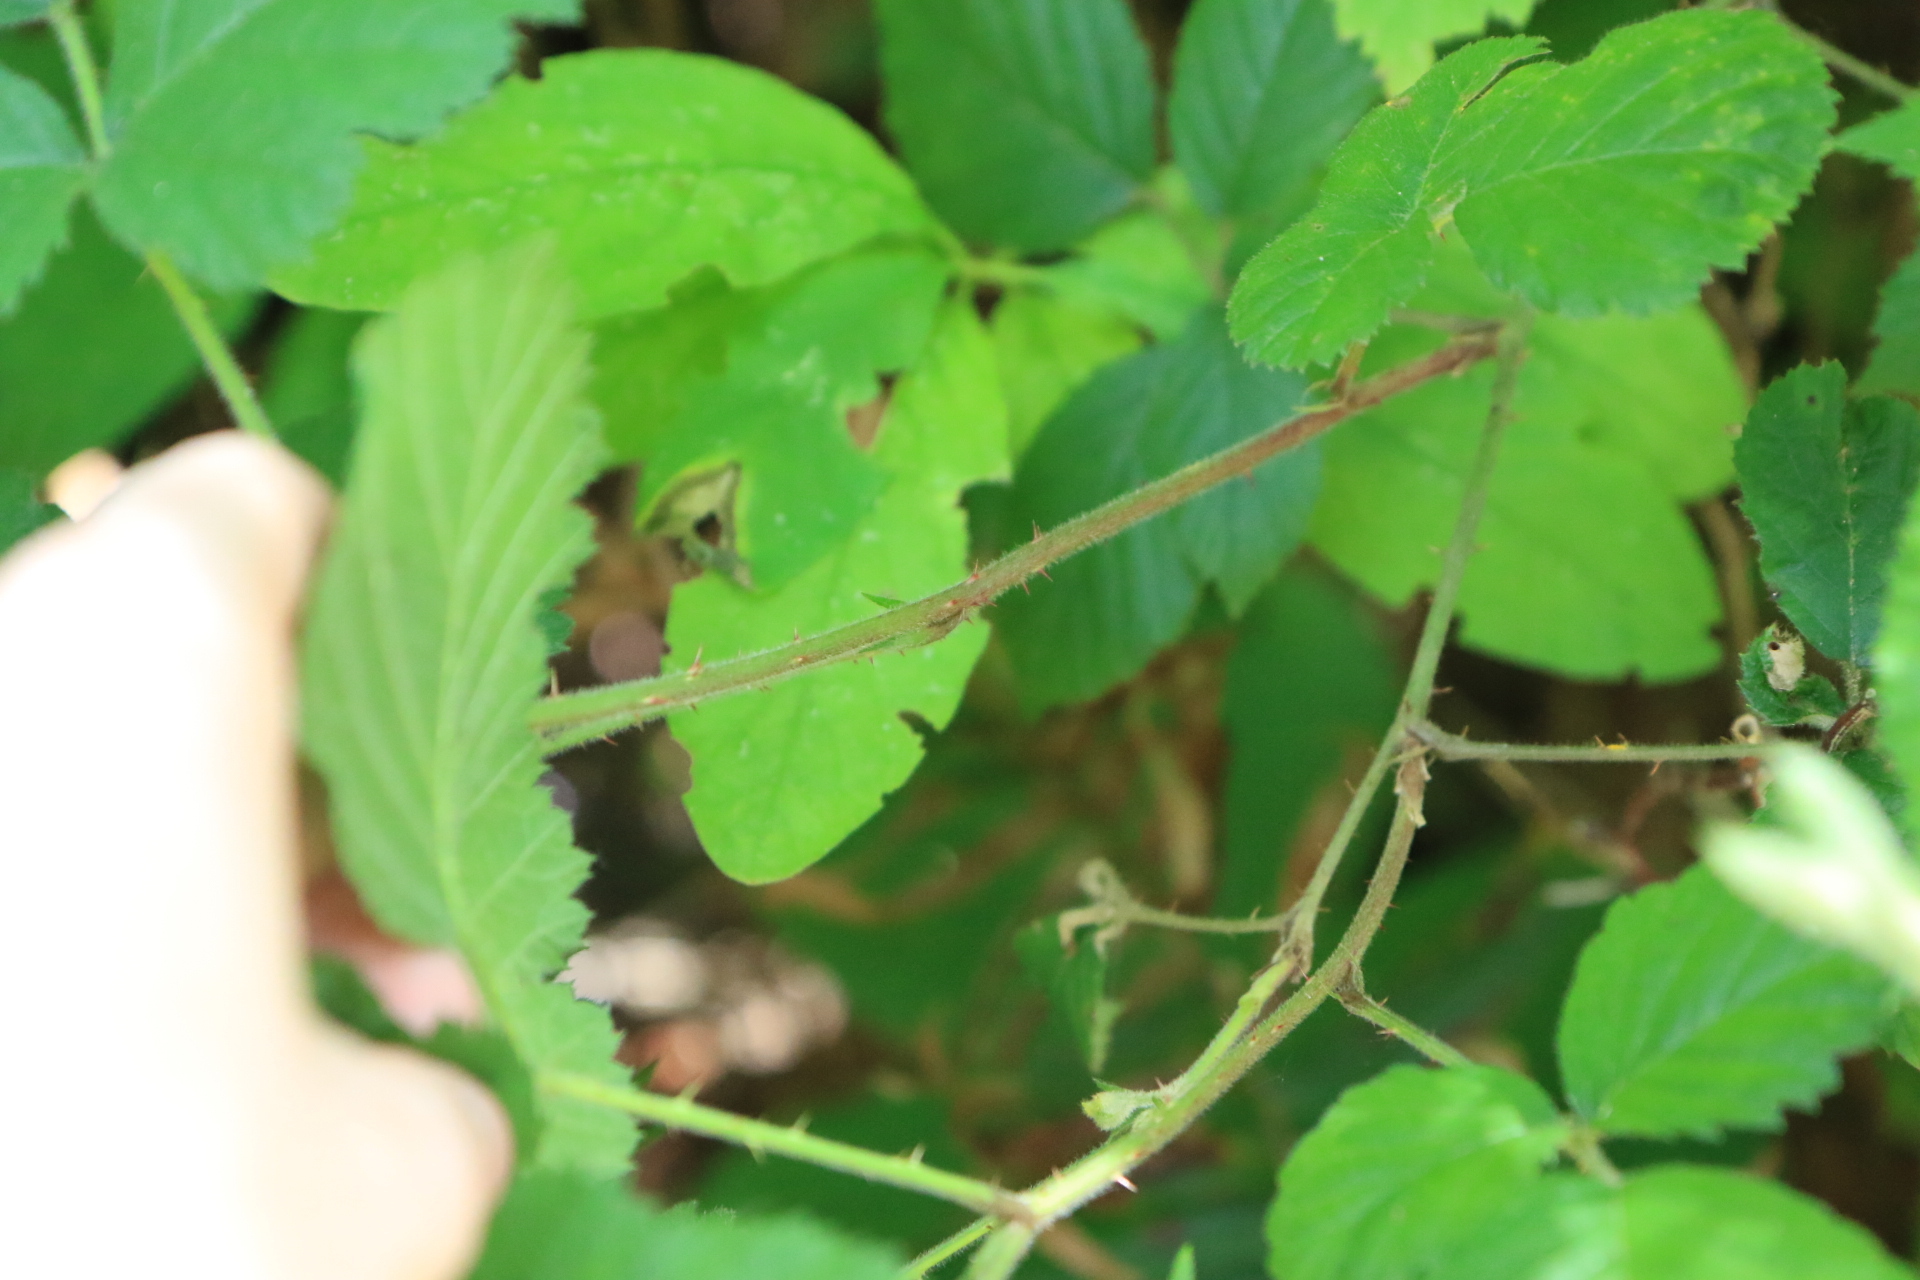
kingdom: Plantae
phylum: Tracheophyta
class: Magnoliopsida
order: Rosales
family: Rosaceae
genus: Rubus
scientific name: Rubus vestitus
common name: European blackberry
